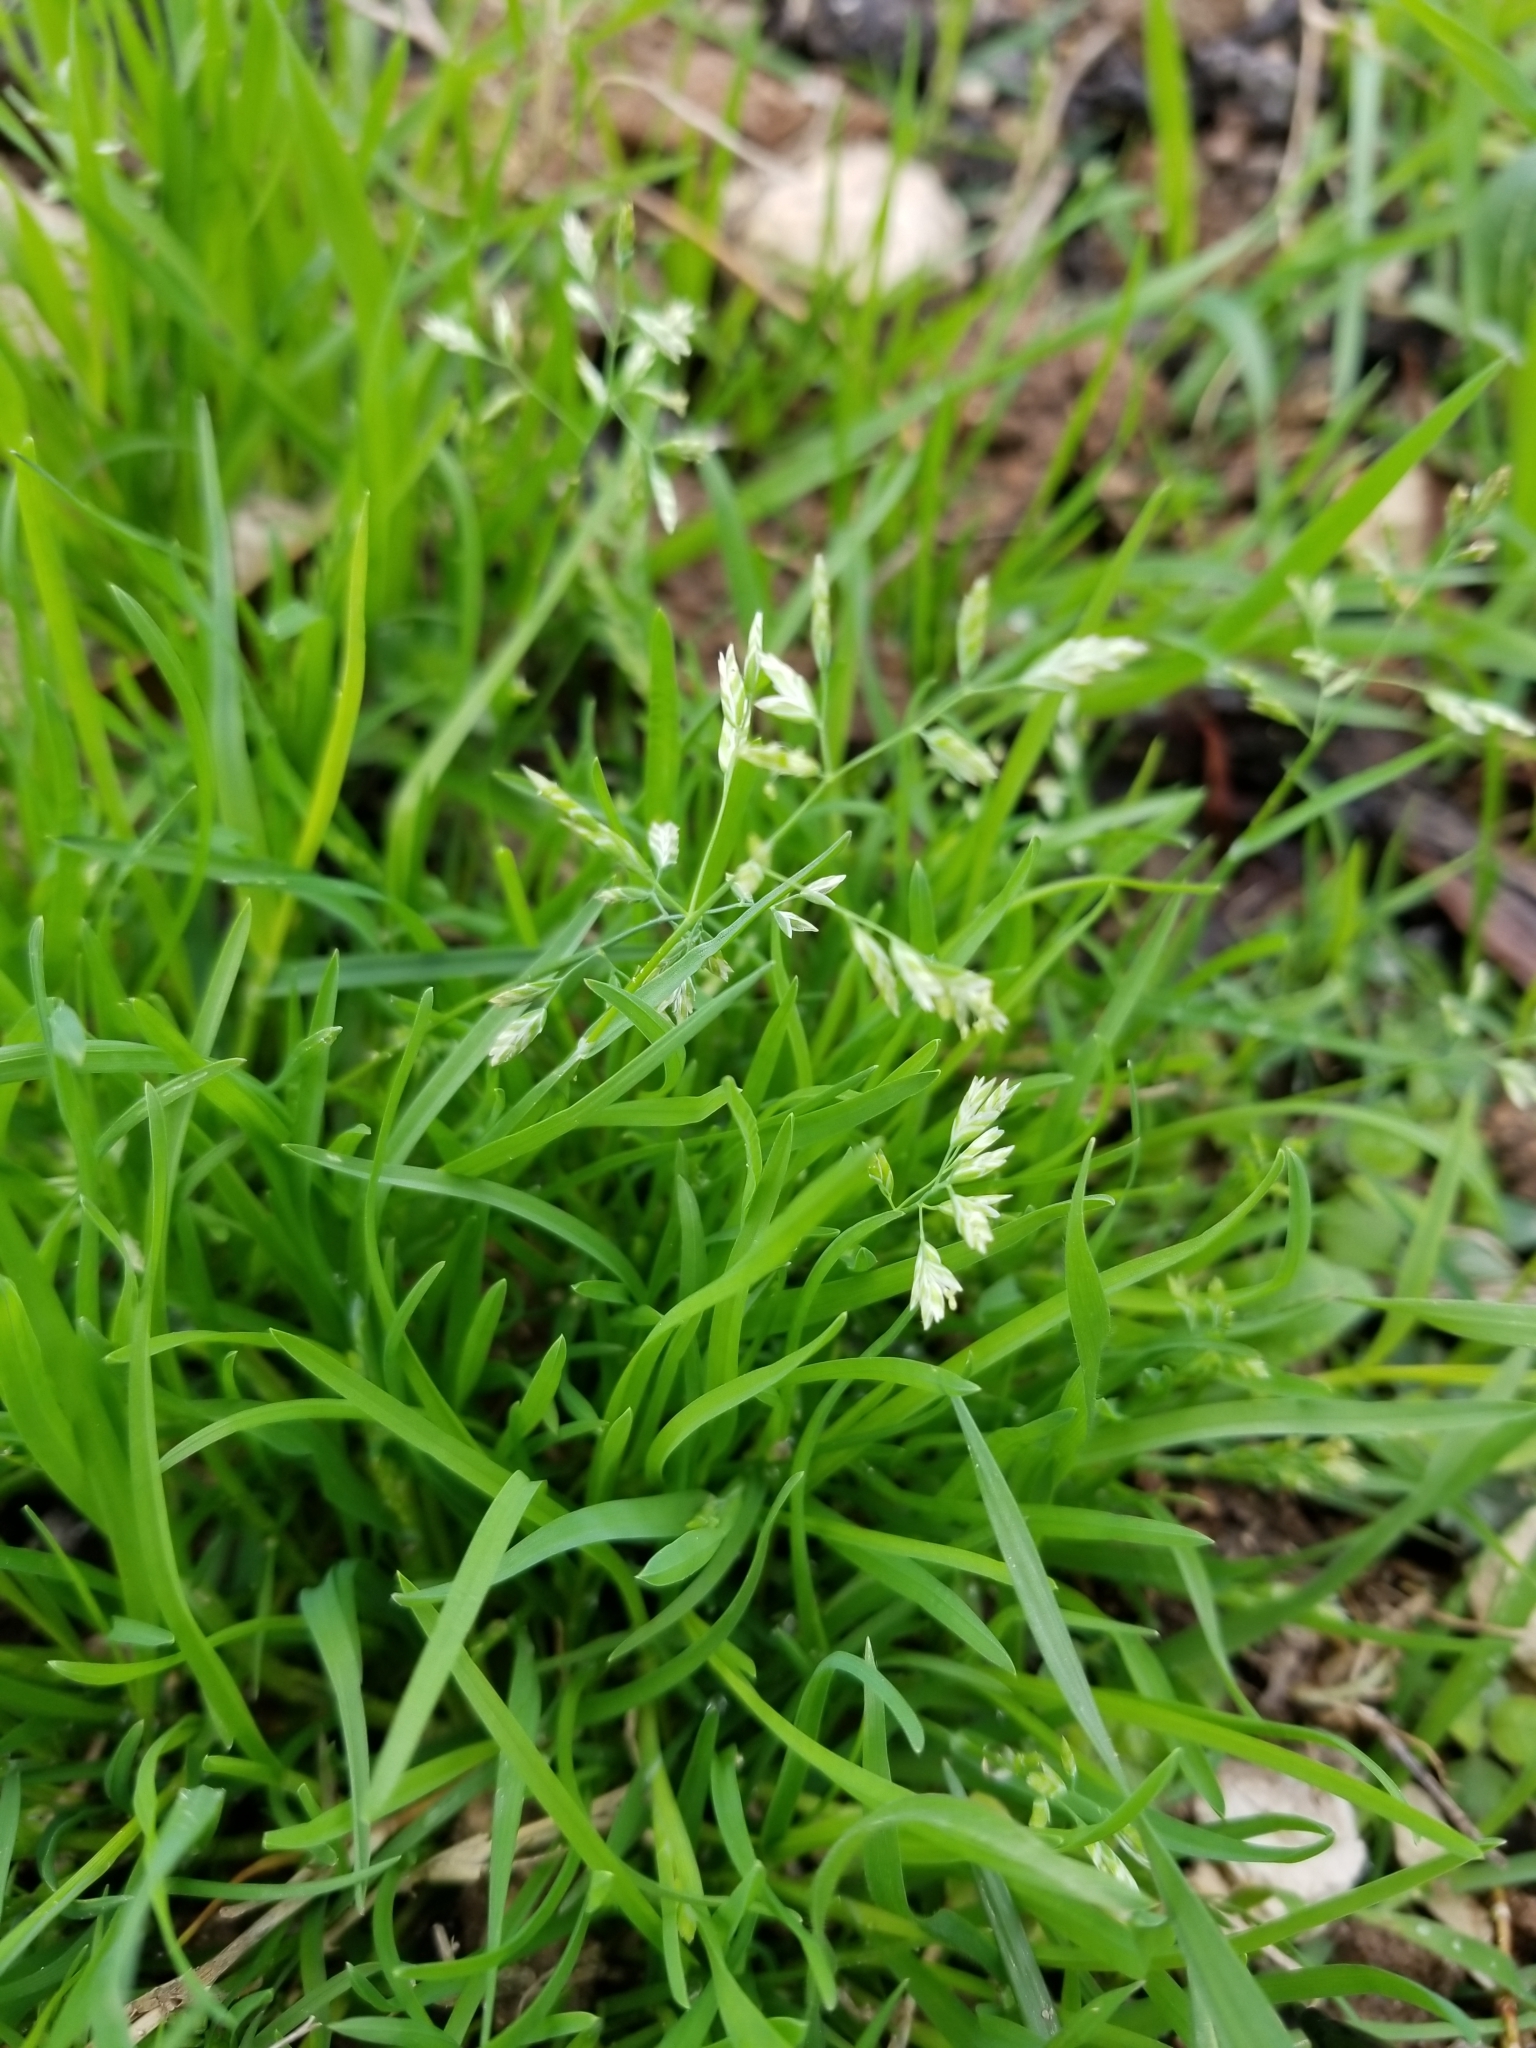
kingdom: Plantae
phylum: Tracheophyta
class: Liliopsida
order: Poales
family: Poaceae
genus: Poa
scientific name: Poa annua
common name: Annual bluegrass
